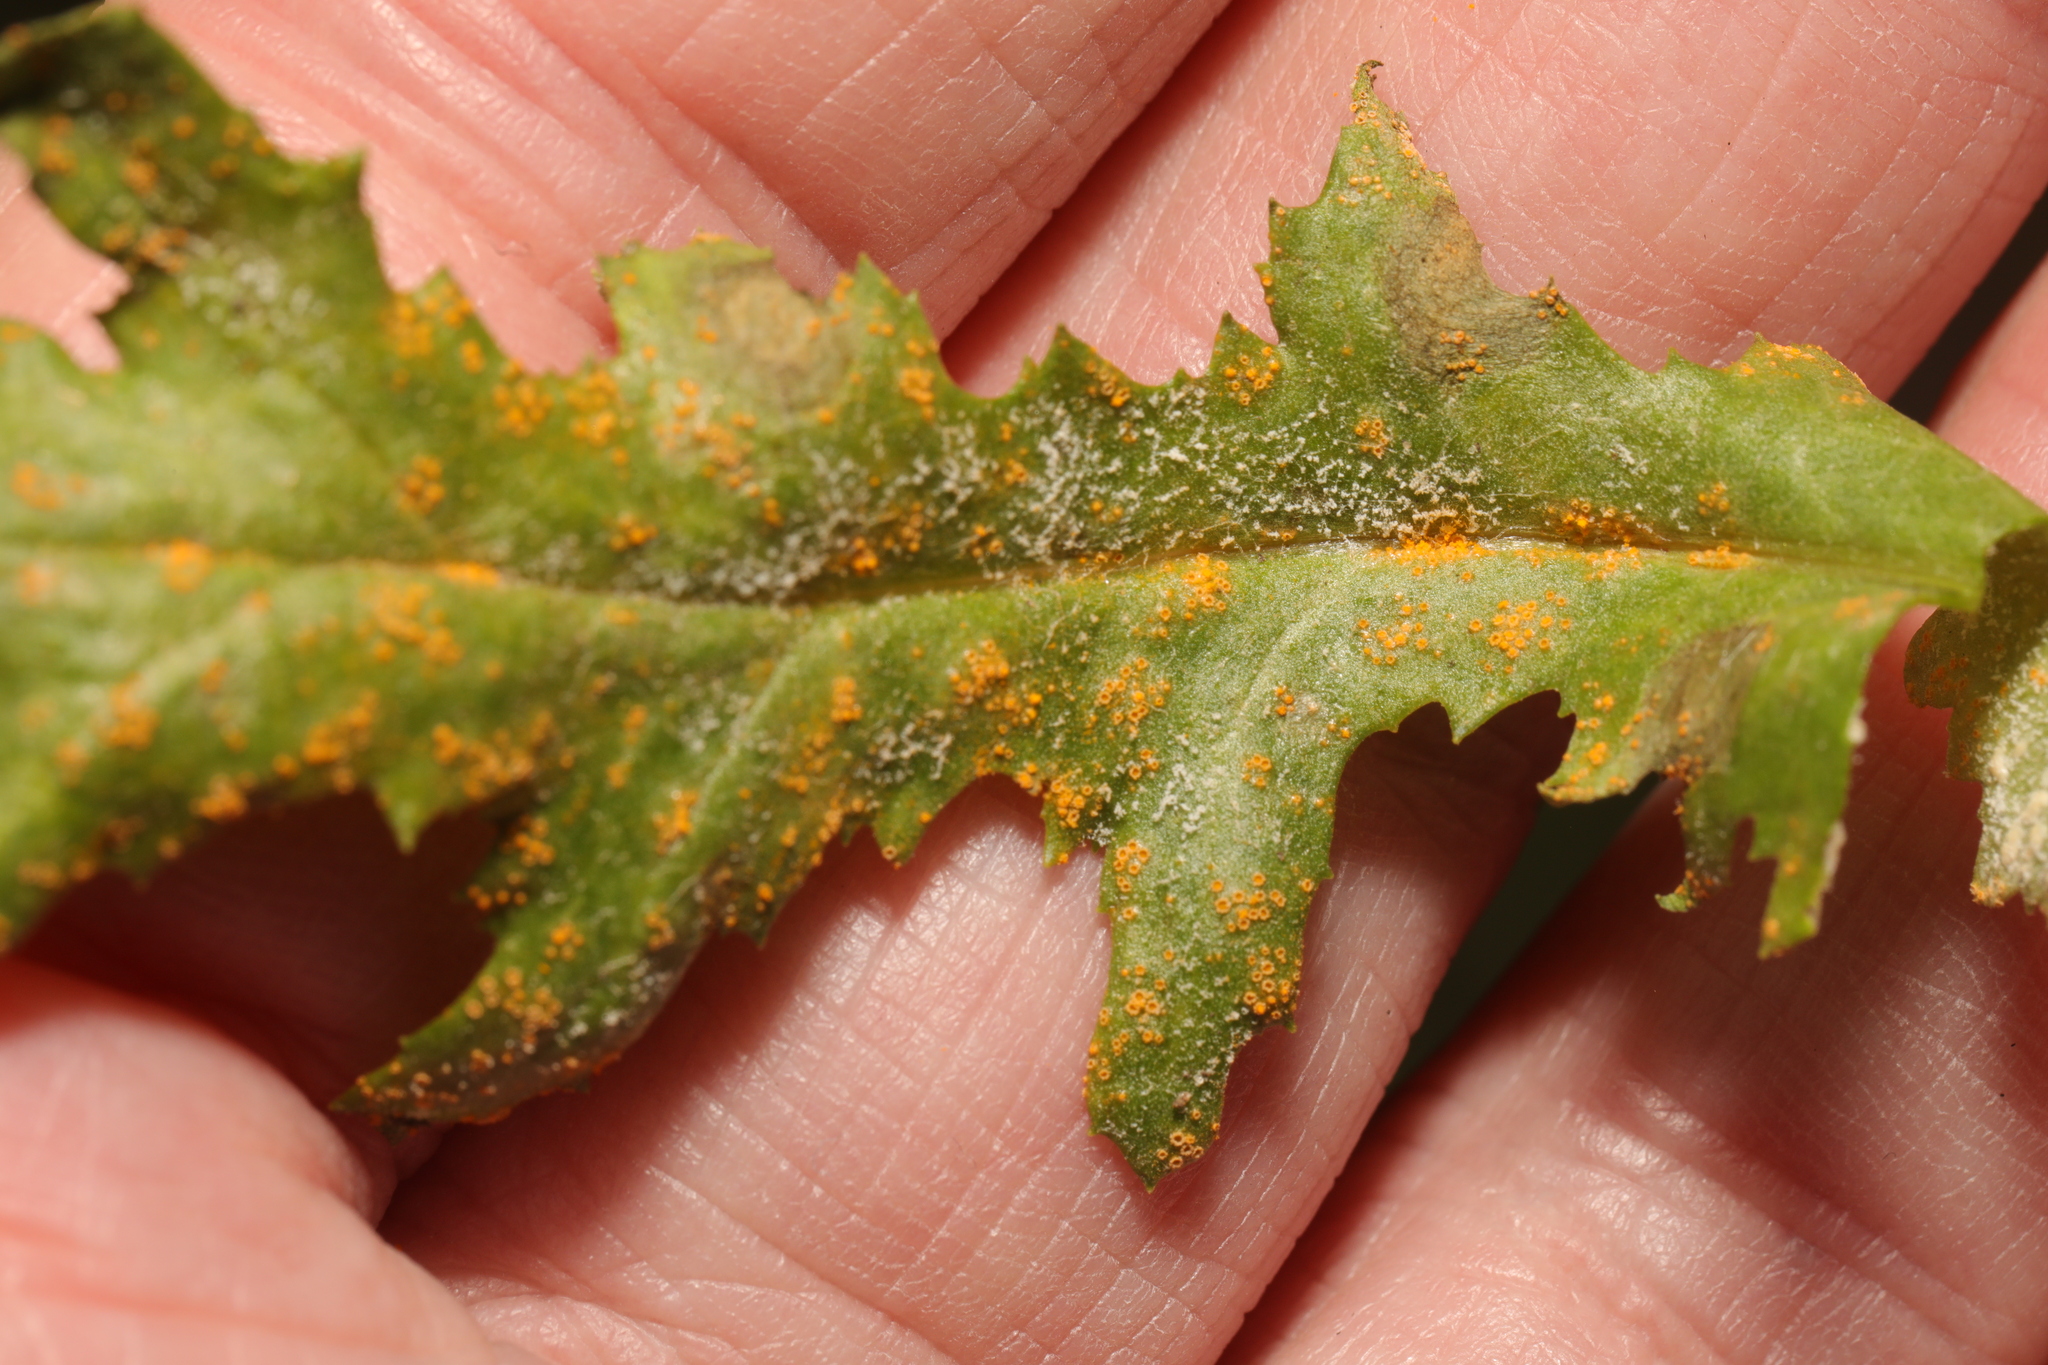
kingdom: Fungi
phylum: Basidiomycota
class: Pucciniomycetes
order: Pucciniales
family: Pucciniaceae
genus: Puccinia
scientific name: Puccinia lagenophorae
